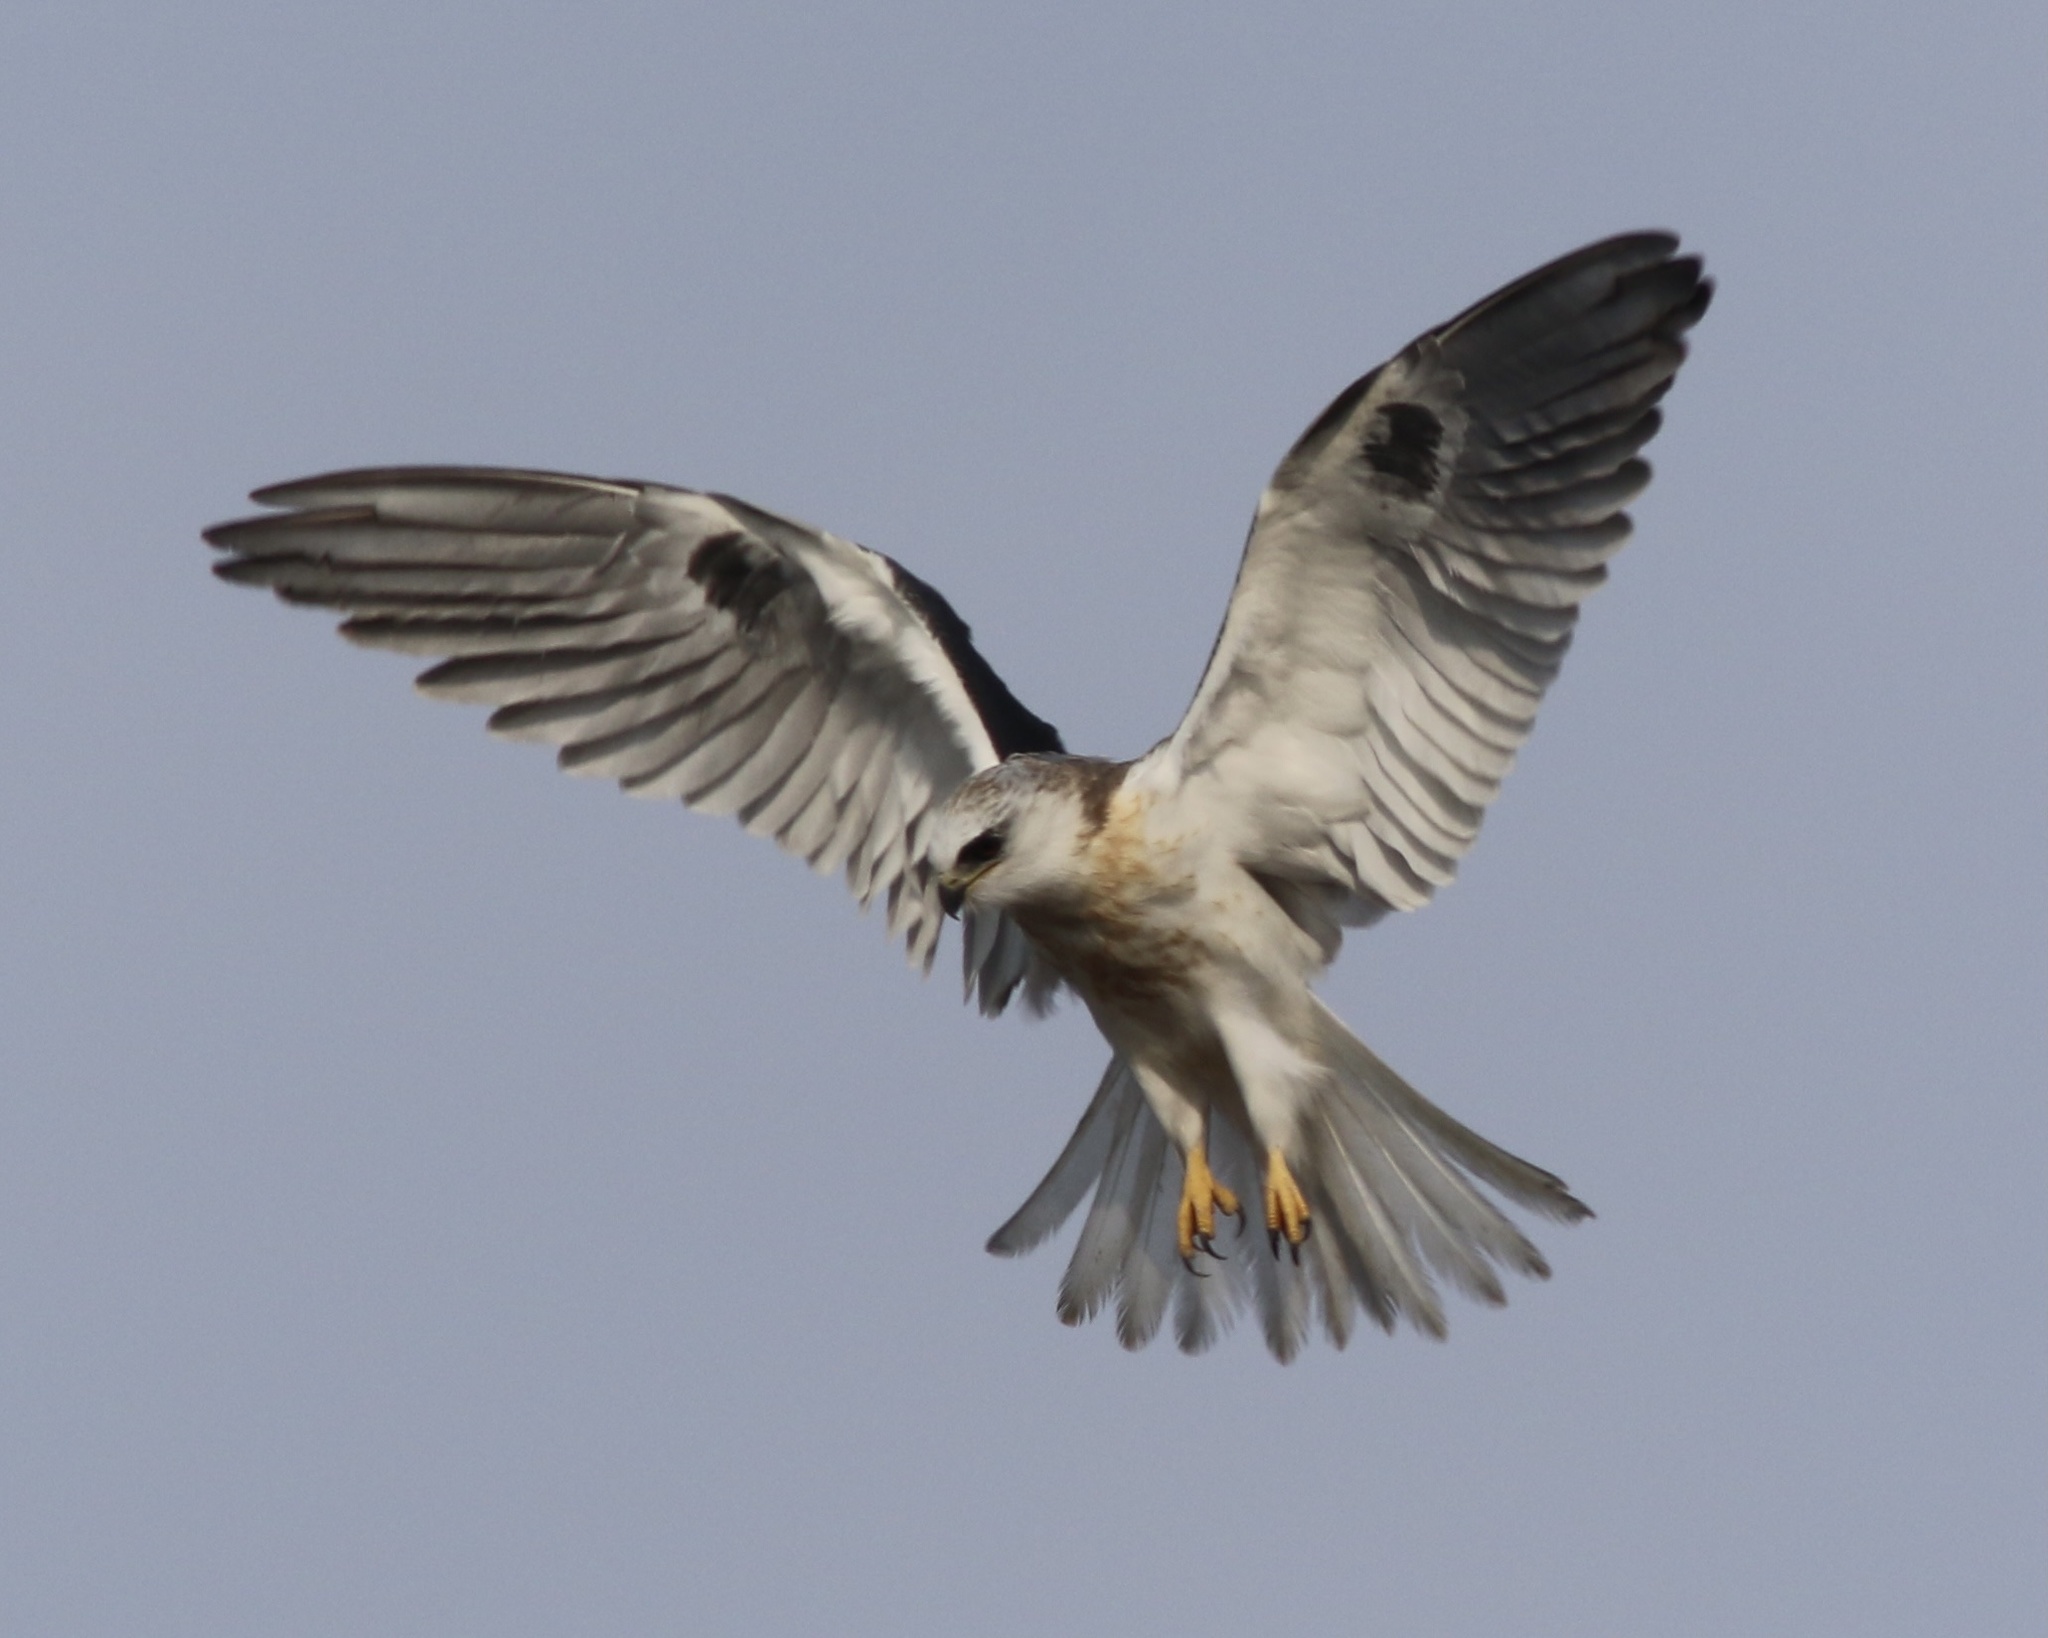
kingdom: Animalia
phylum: Chordata
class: Aves
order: Accipitriformes
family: Accipitridae
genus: Elanus
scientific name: Elanus leucurus
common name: White-tailed kite
